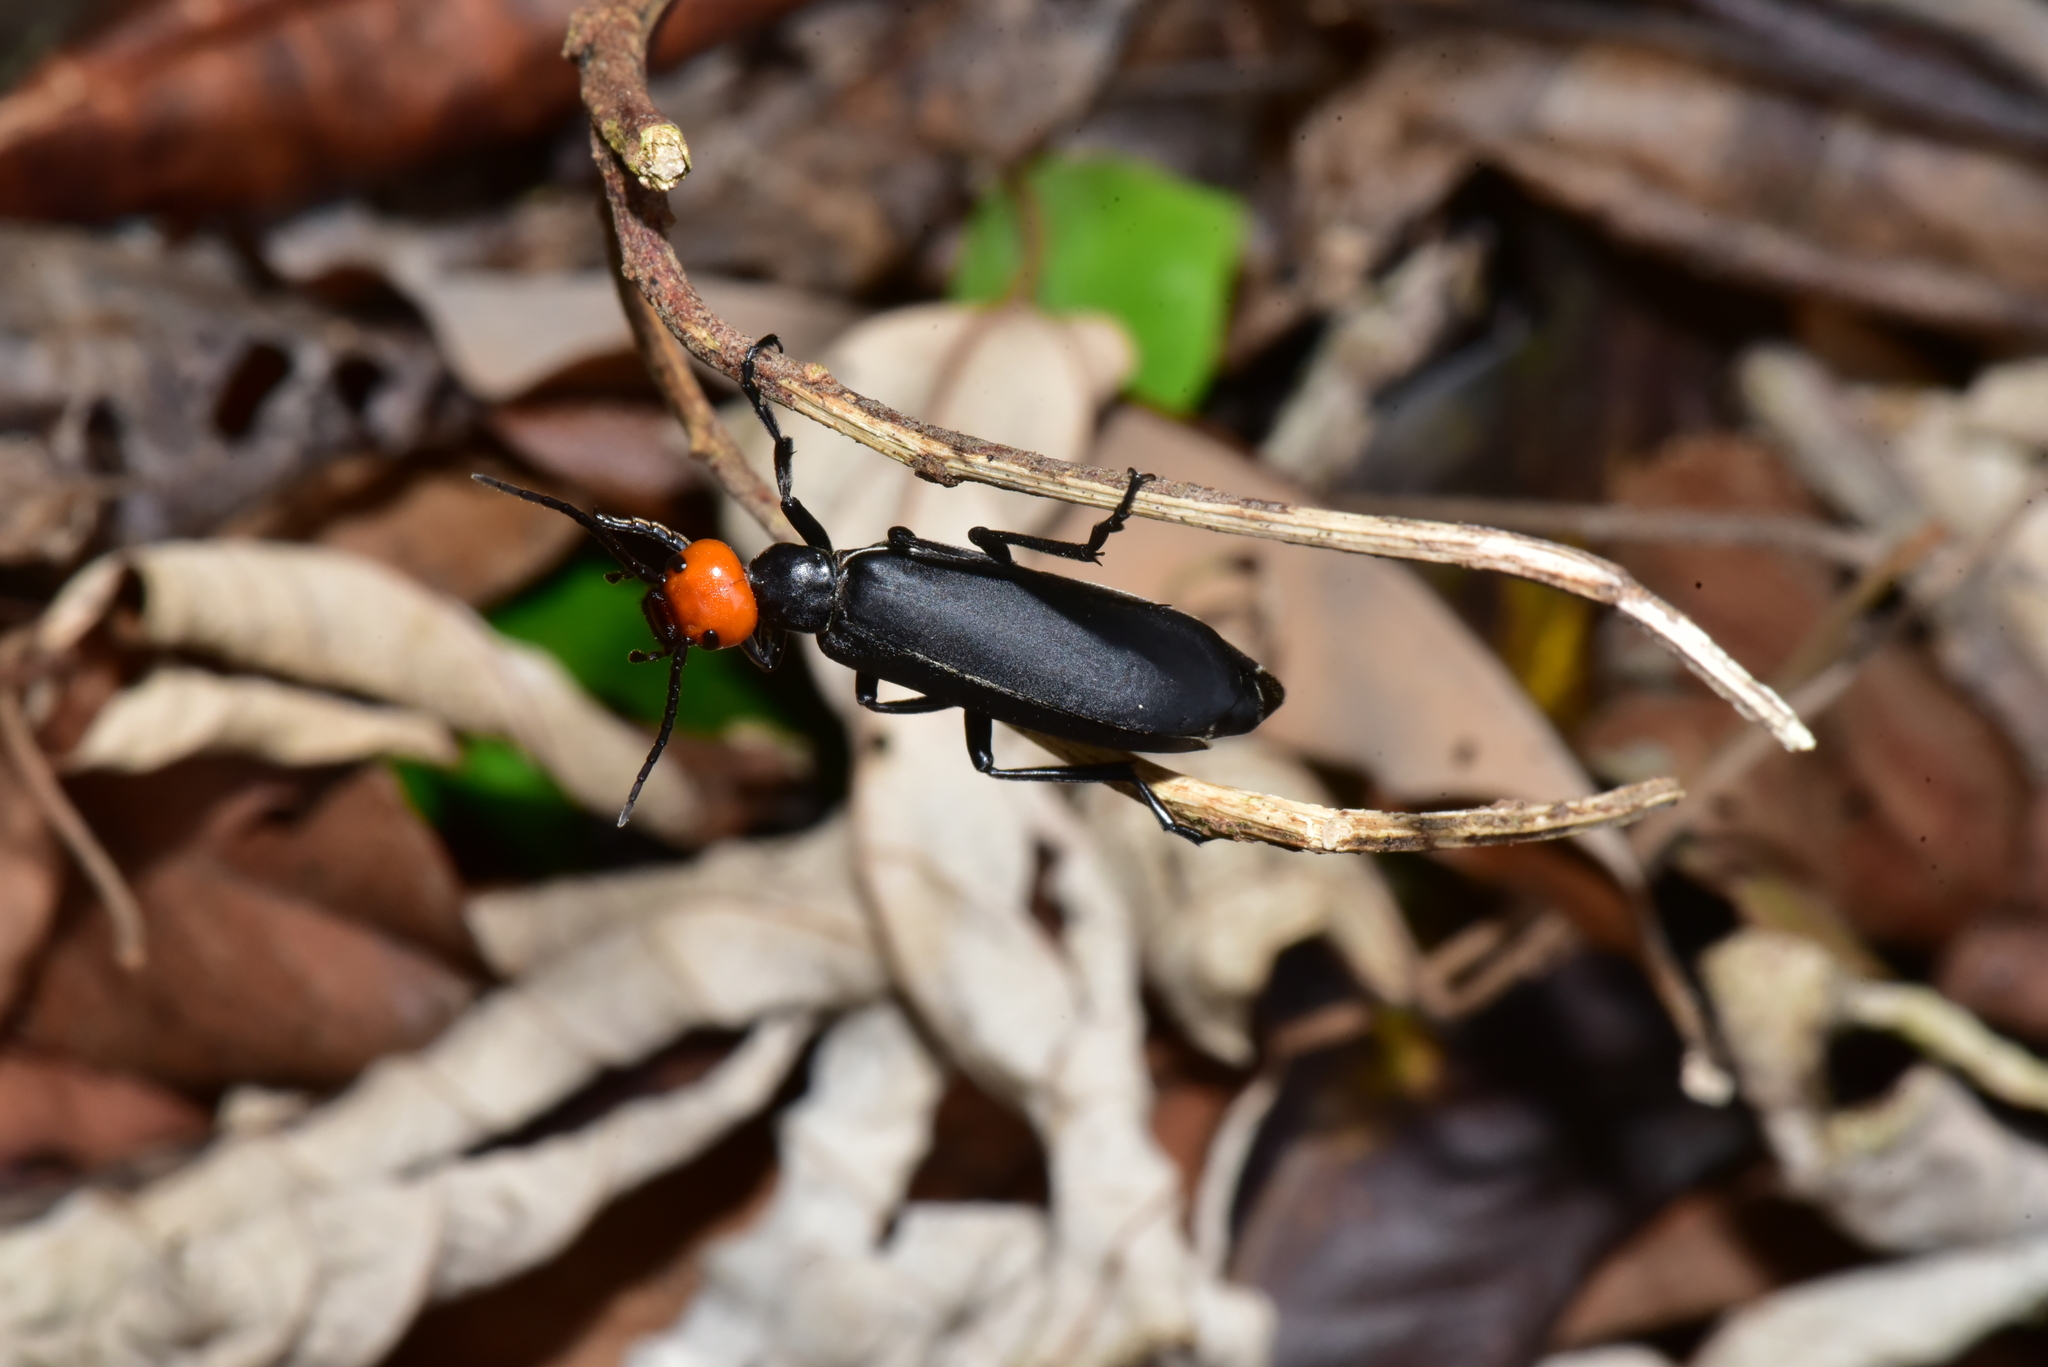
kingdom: Animalia
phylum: Arthropoda
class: Insecta
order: Coleoptera
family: Meloidae
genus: Epicauta
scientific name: Epicauta hirticornis
